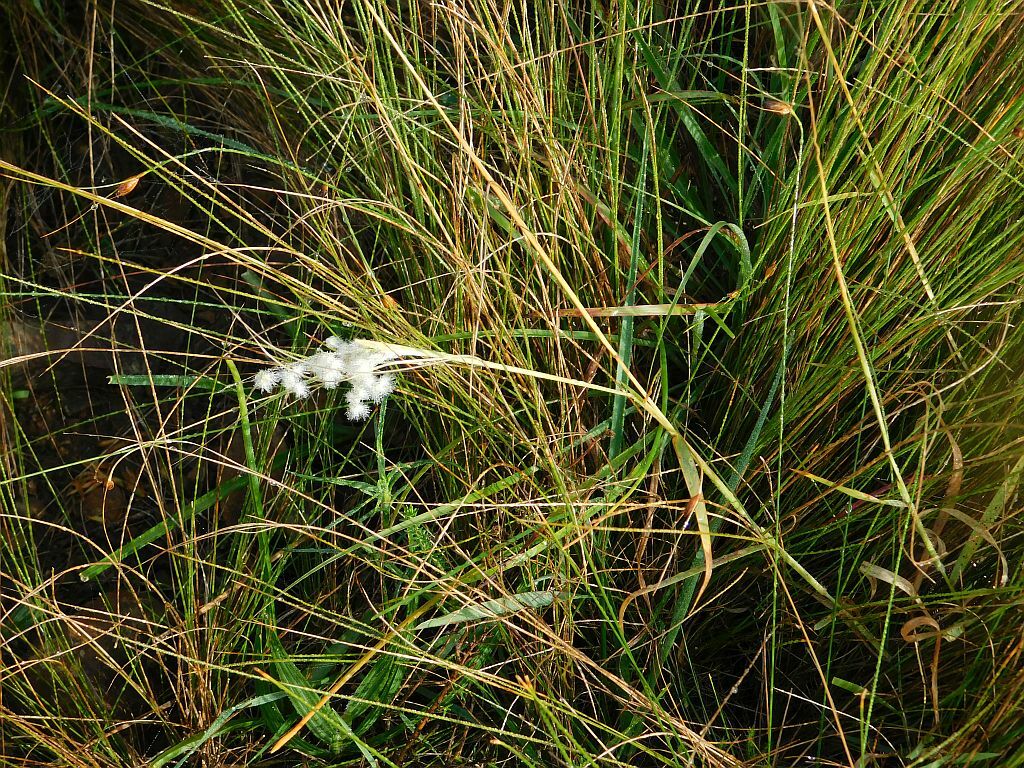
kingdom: Plantae
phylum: Tracheophyta
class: Liliopsida
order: Poales
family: Poaceae
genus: Melinis
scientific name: Melinis repens
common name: Rose natal grass
